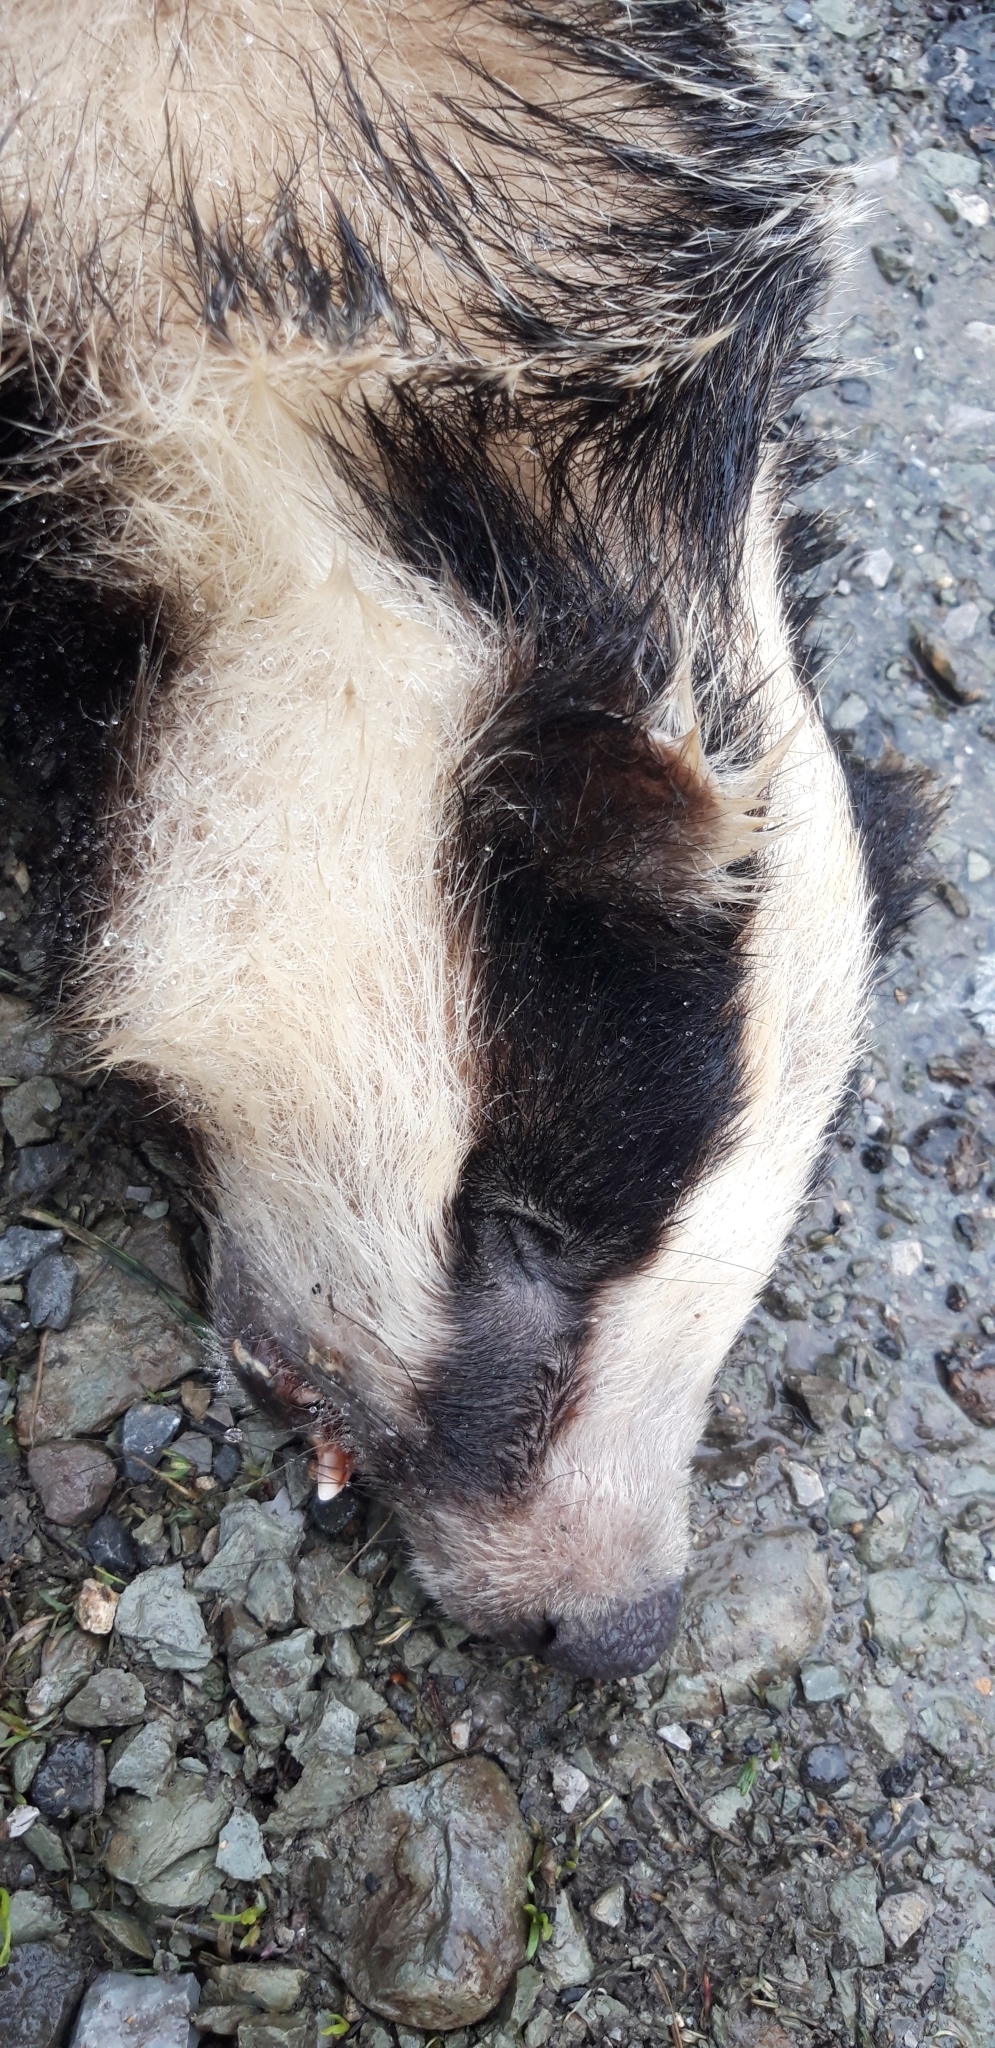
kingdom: Animalia
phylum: Chordata
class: Mammalia
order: Carnivora
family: Mustelidae
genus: Meles
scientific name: Meles meles
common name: Eurasian badger
